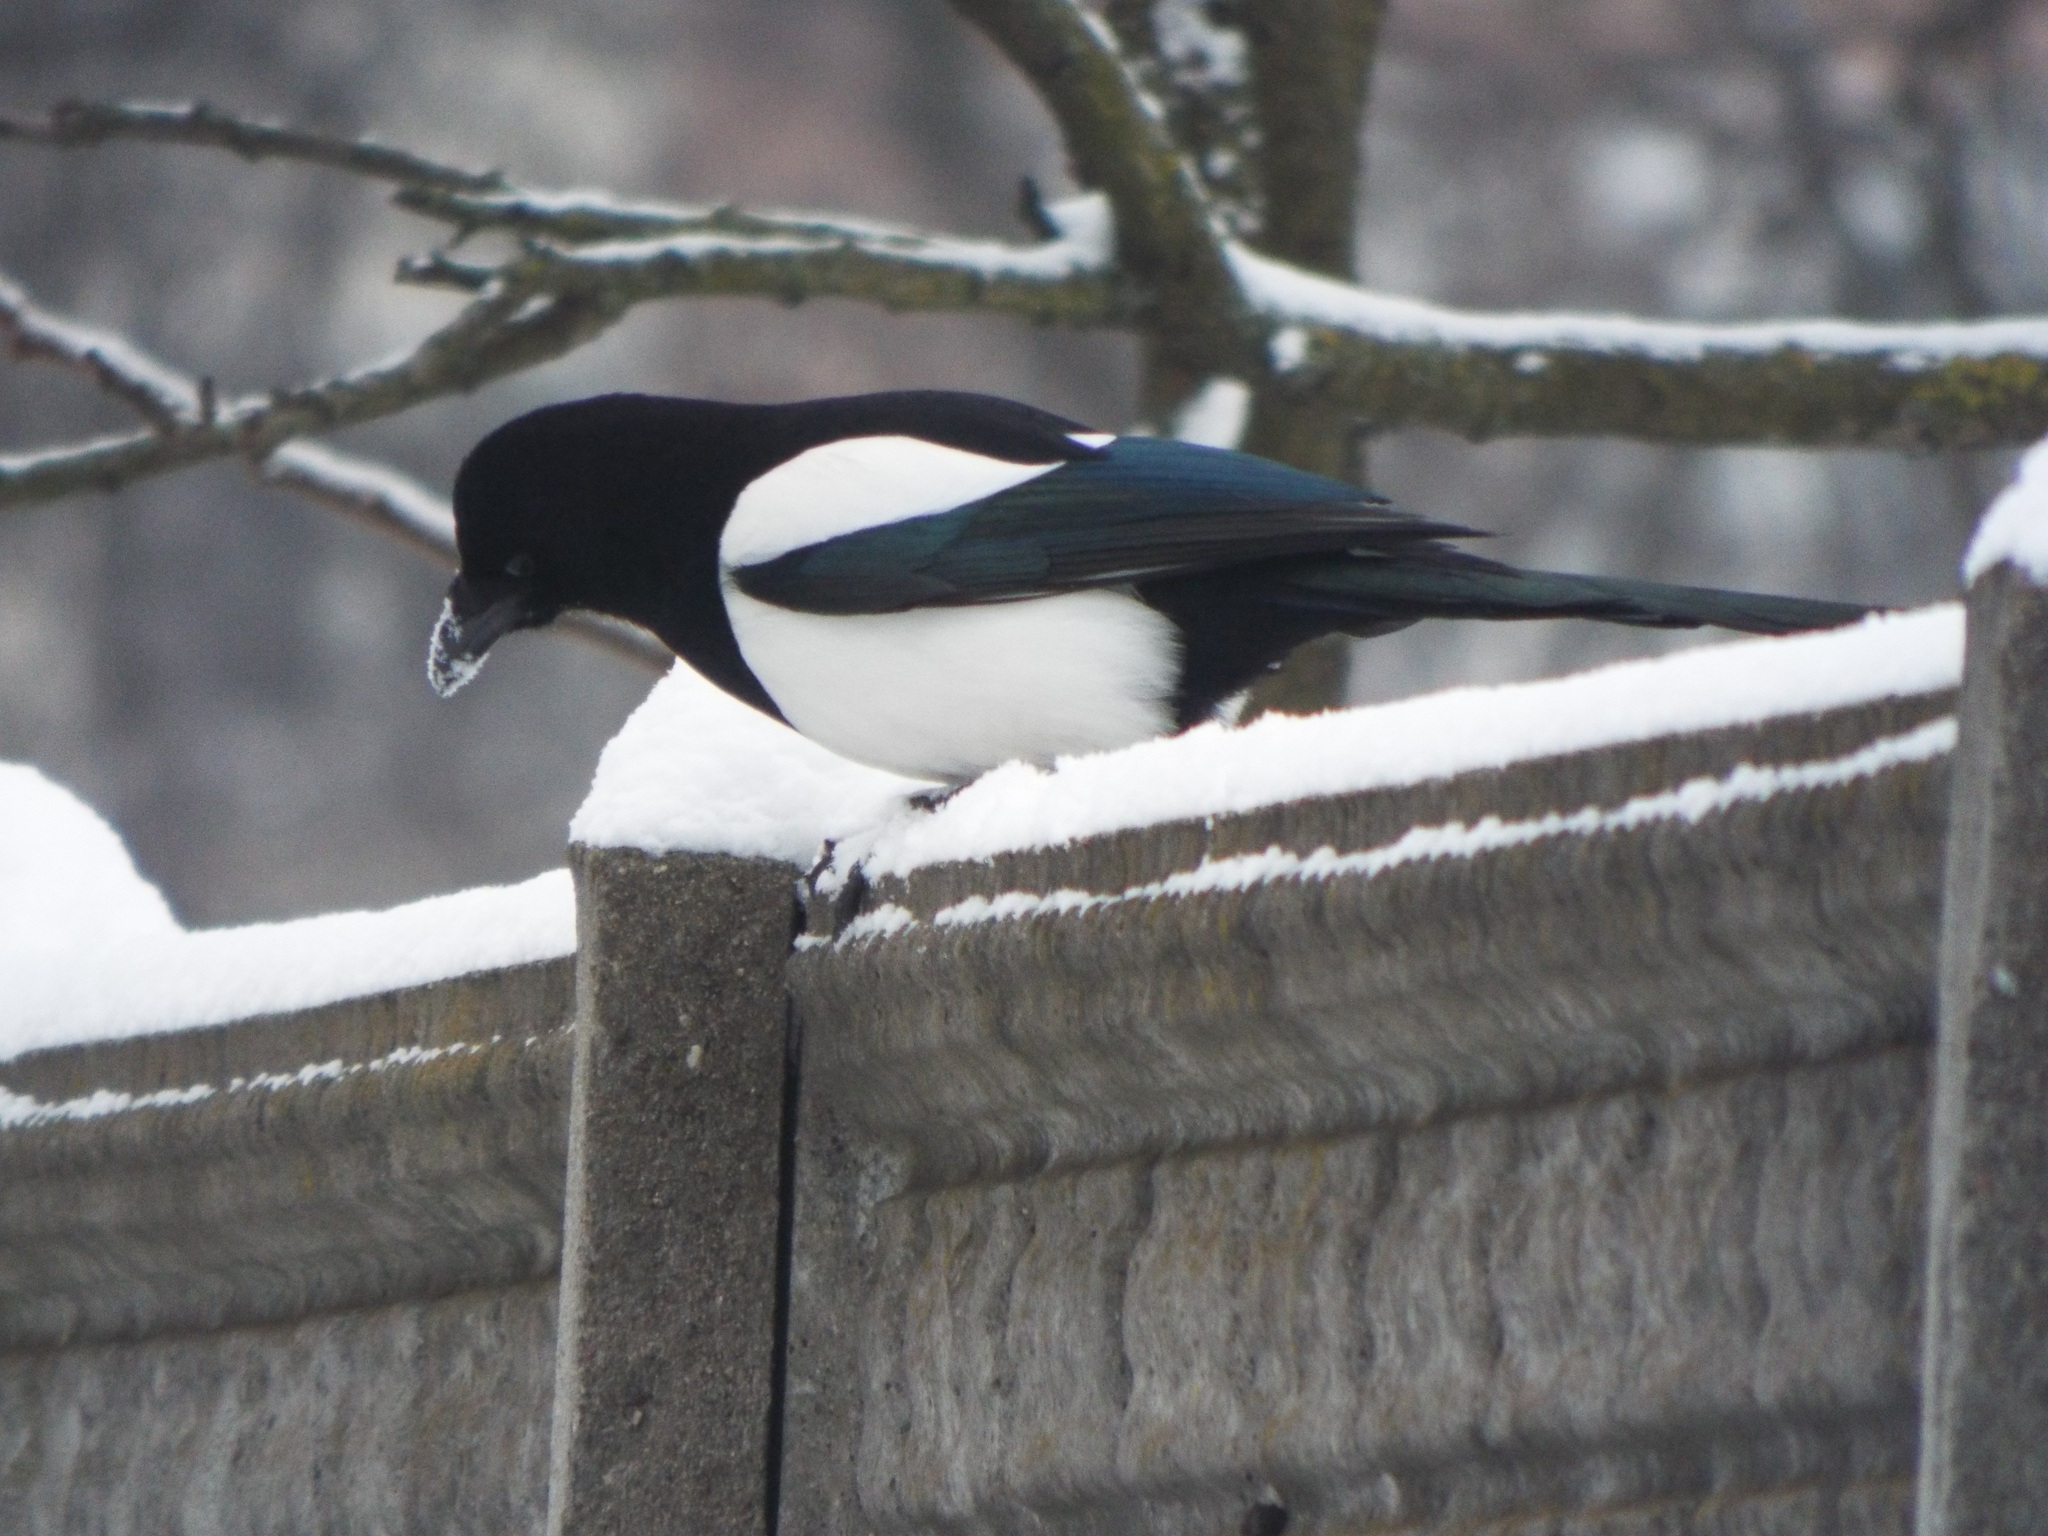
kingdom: Animalia
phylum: Chordata
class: Aves
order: Passeriformes
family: Corvidae
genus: Pica
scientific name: Pica pica
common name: Eurasian magpie
